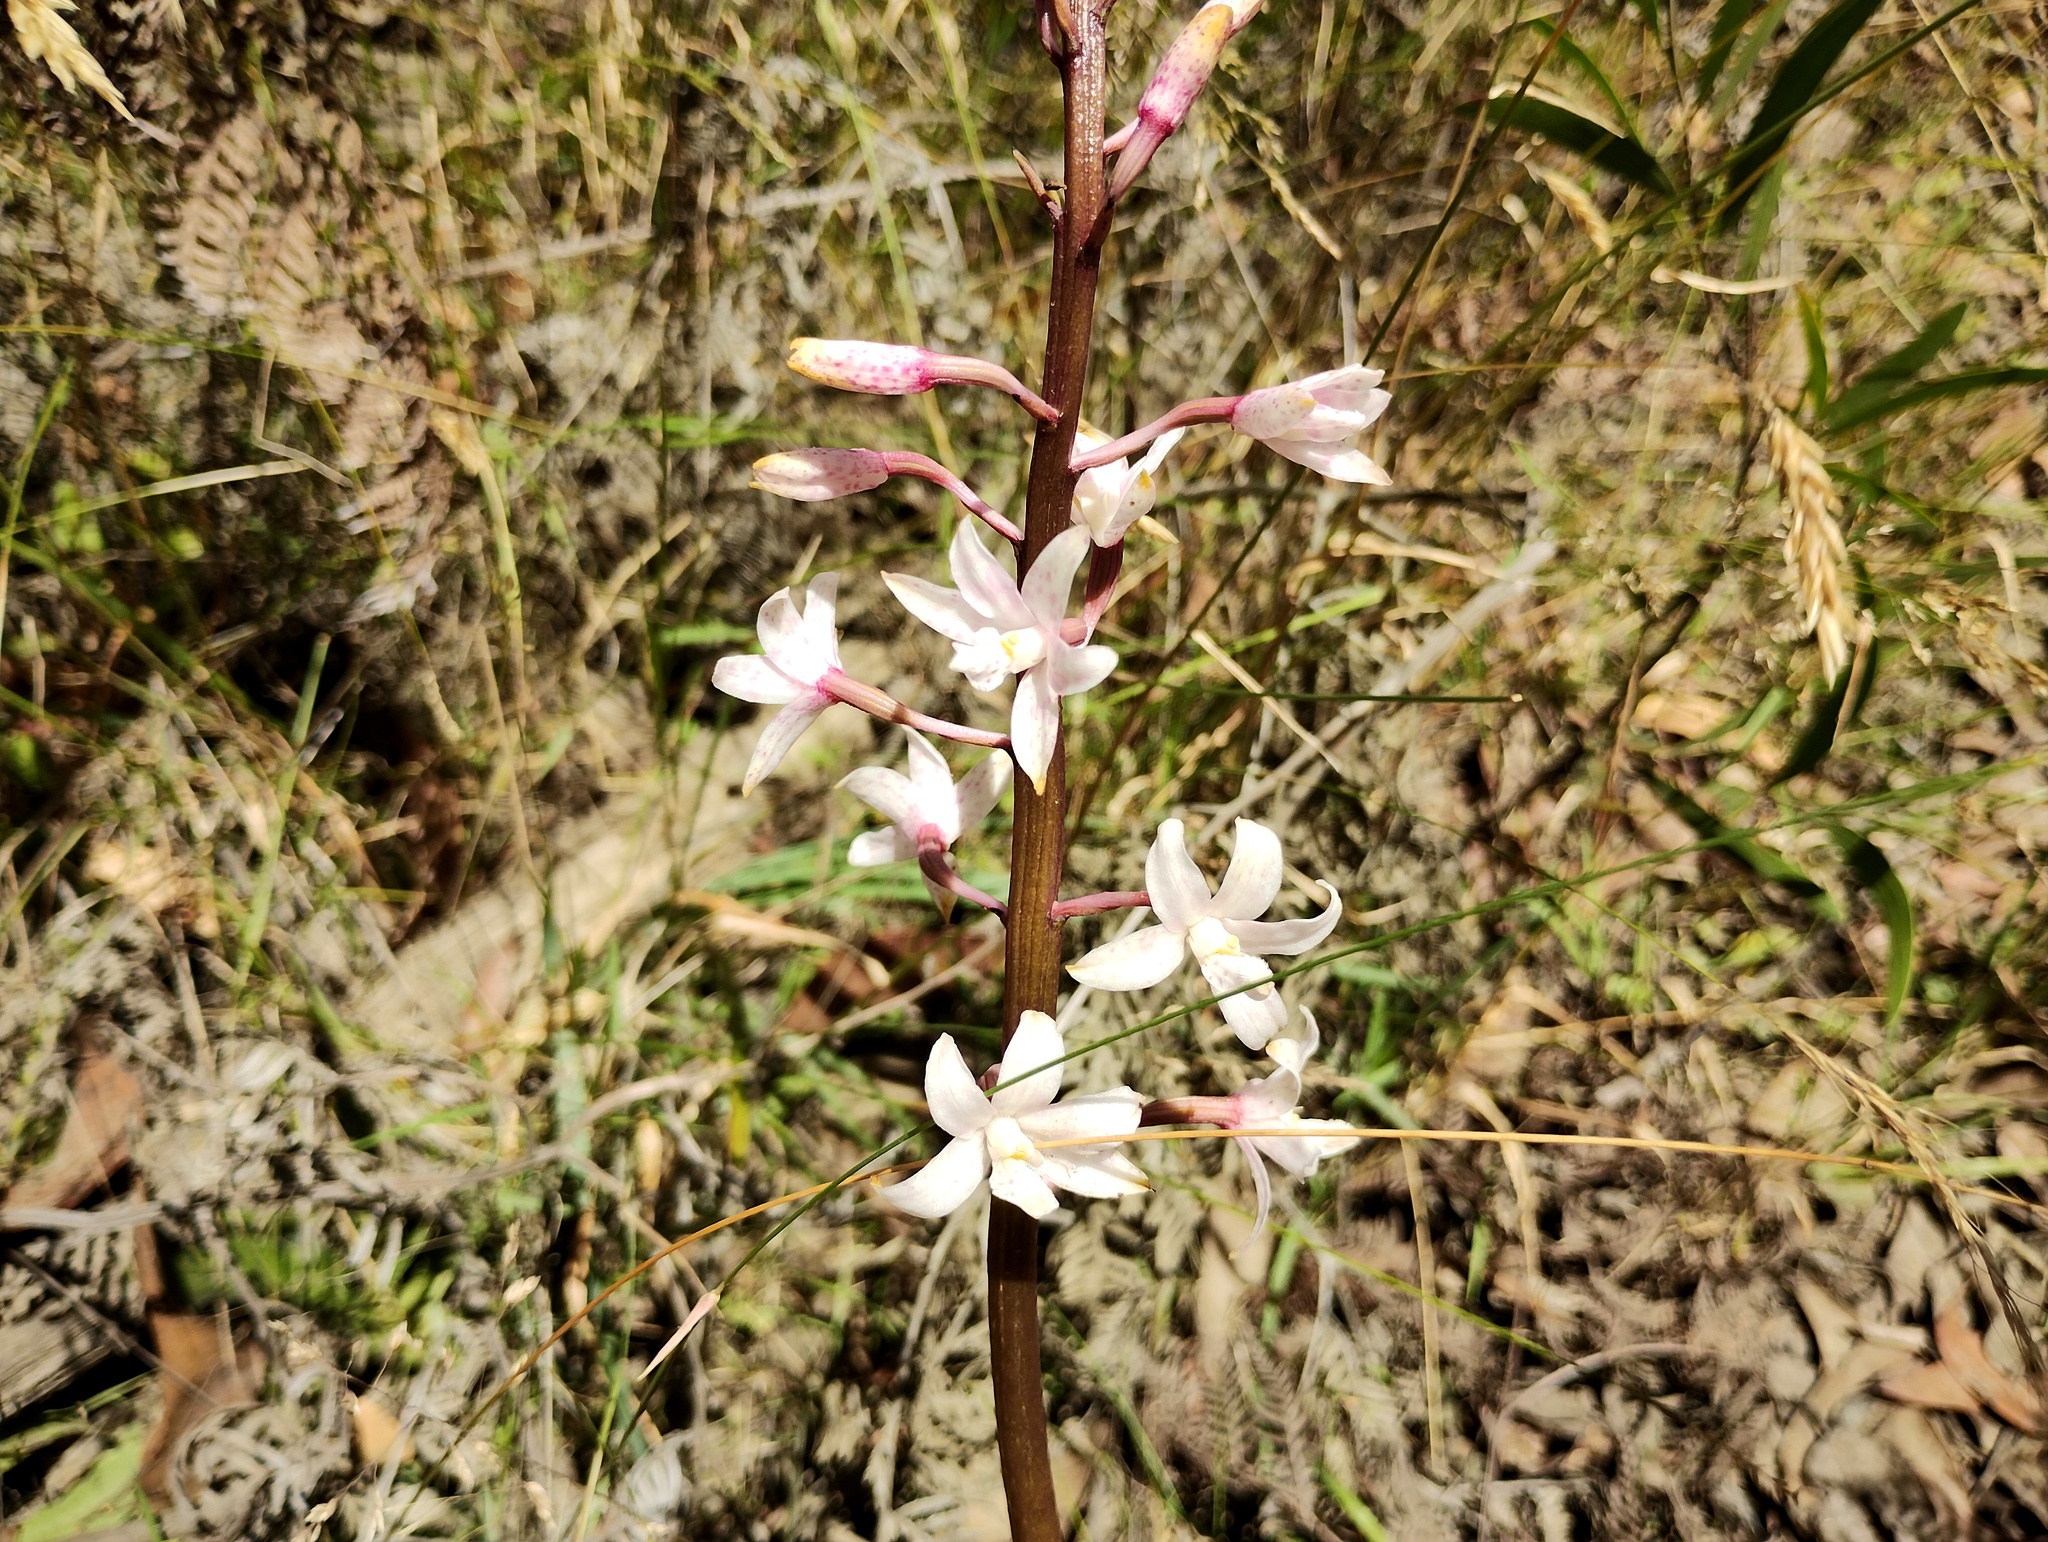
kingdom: Plantae
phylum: Tracheophyta
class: Liliopsida
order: Asparagales
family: Orchidaceae
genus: Dipodium
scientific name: Dipodium pardalinum
